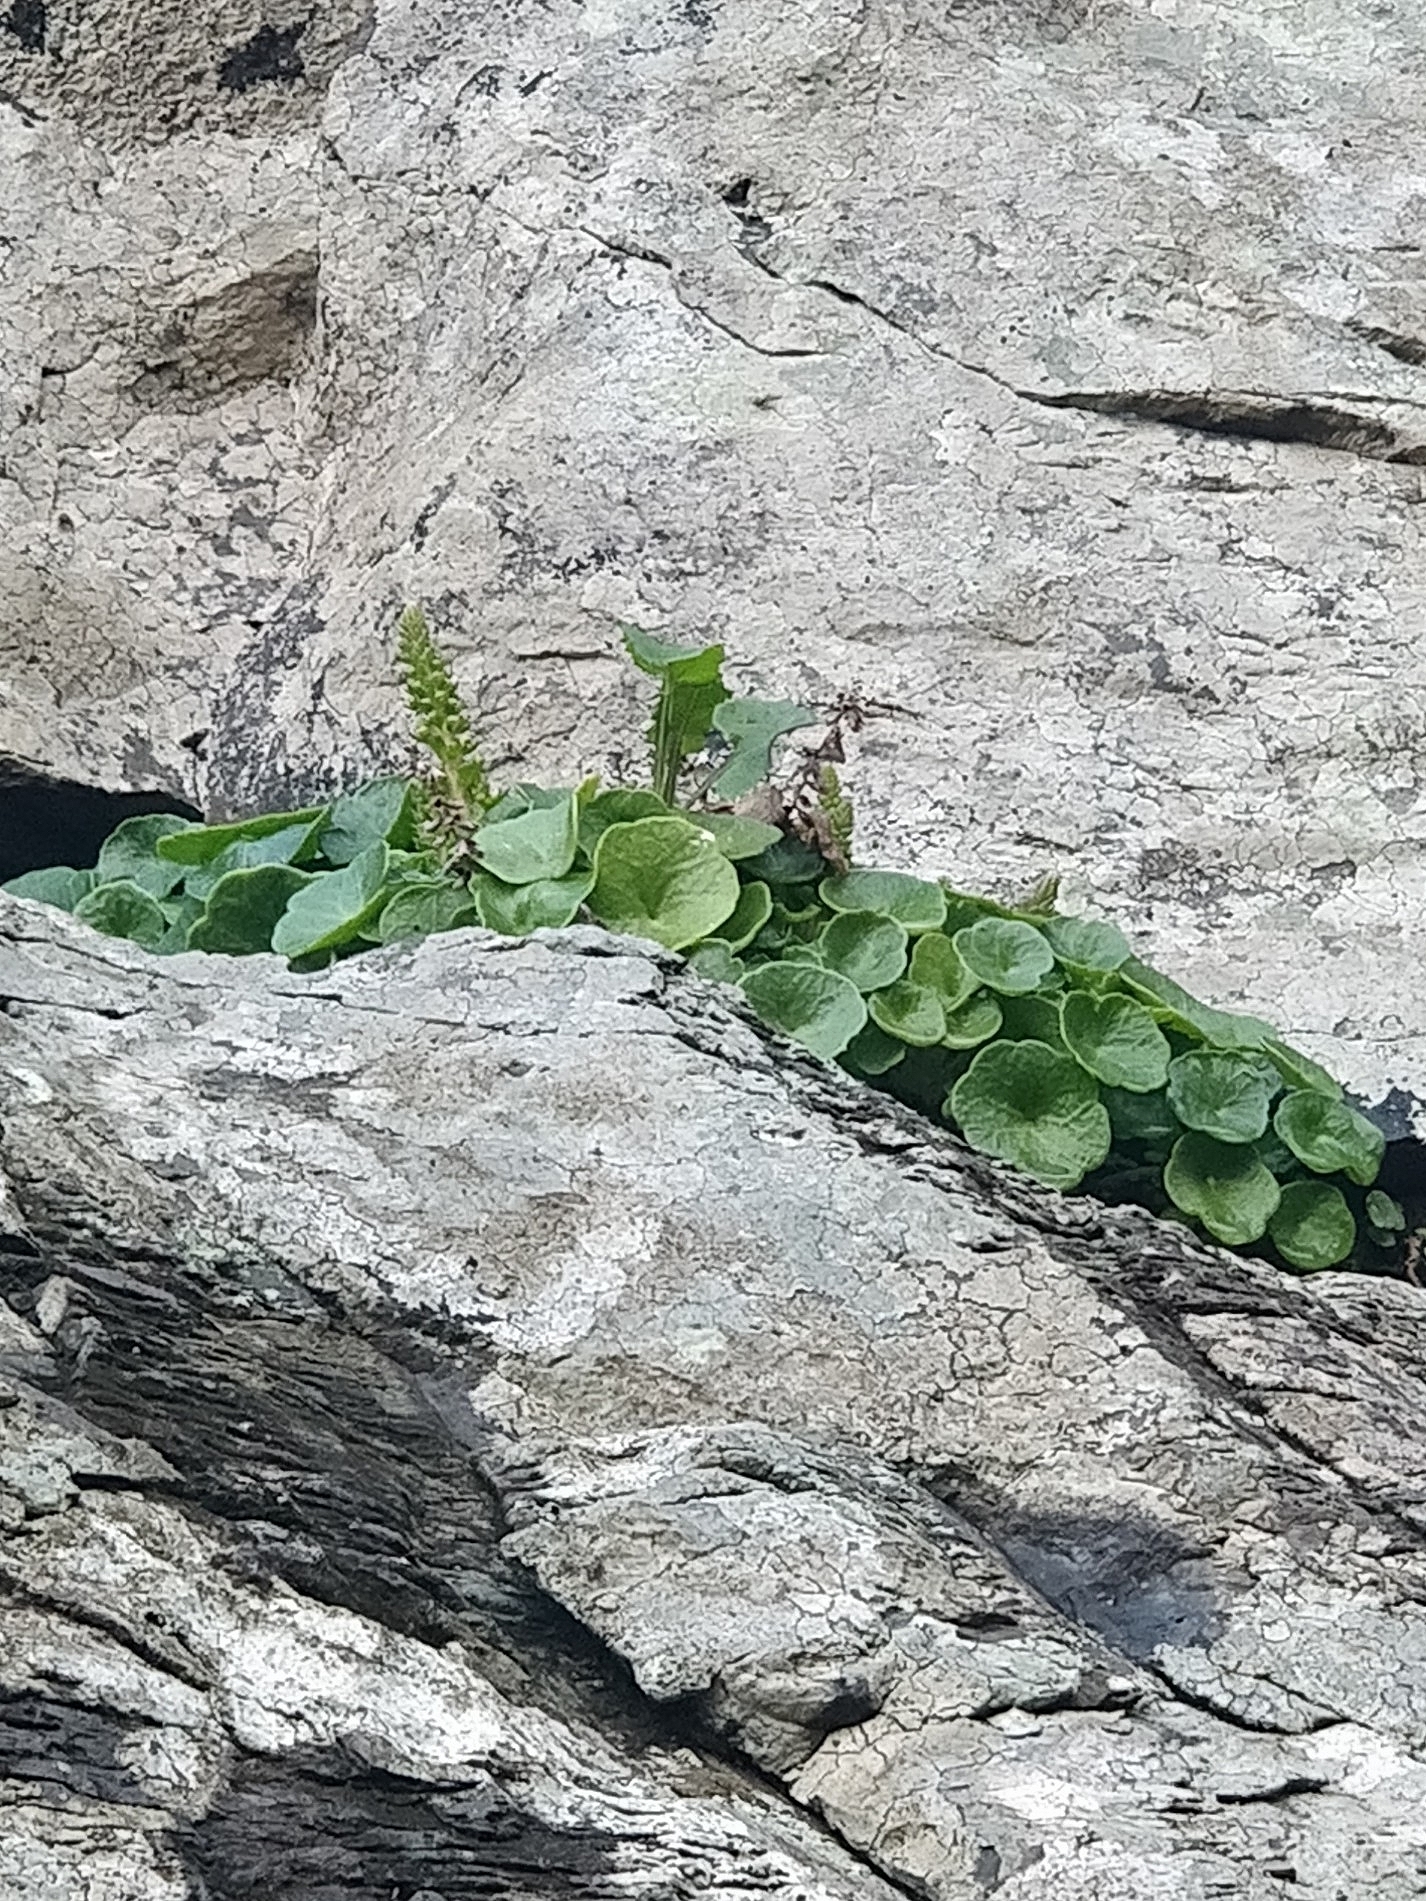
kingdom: Plantae
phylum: Tracheophyta
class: Magnoliopsida
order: Saxifragales
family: Crassulaceae
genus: Umbilicus
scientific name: Umbilicus rupestris
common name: Navelwort
